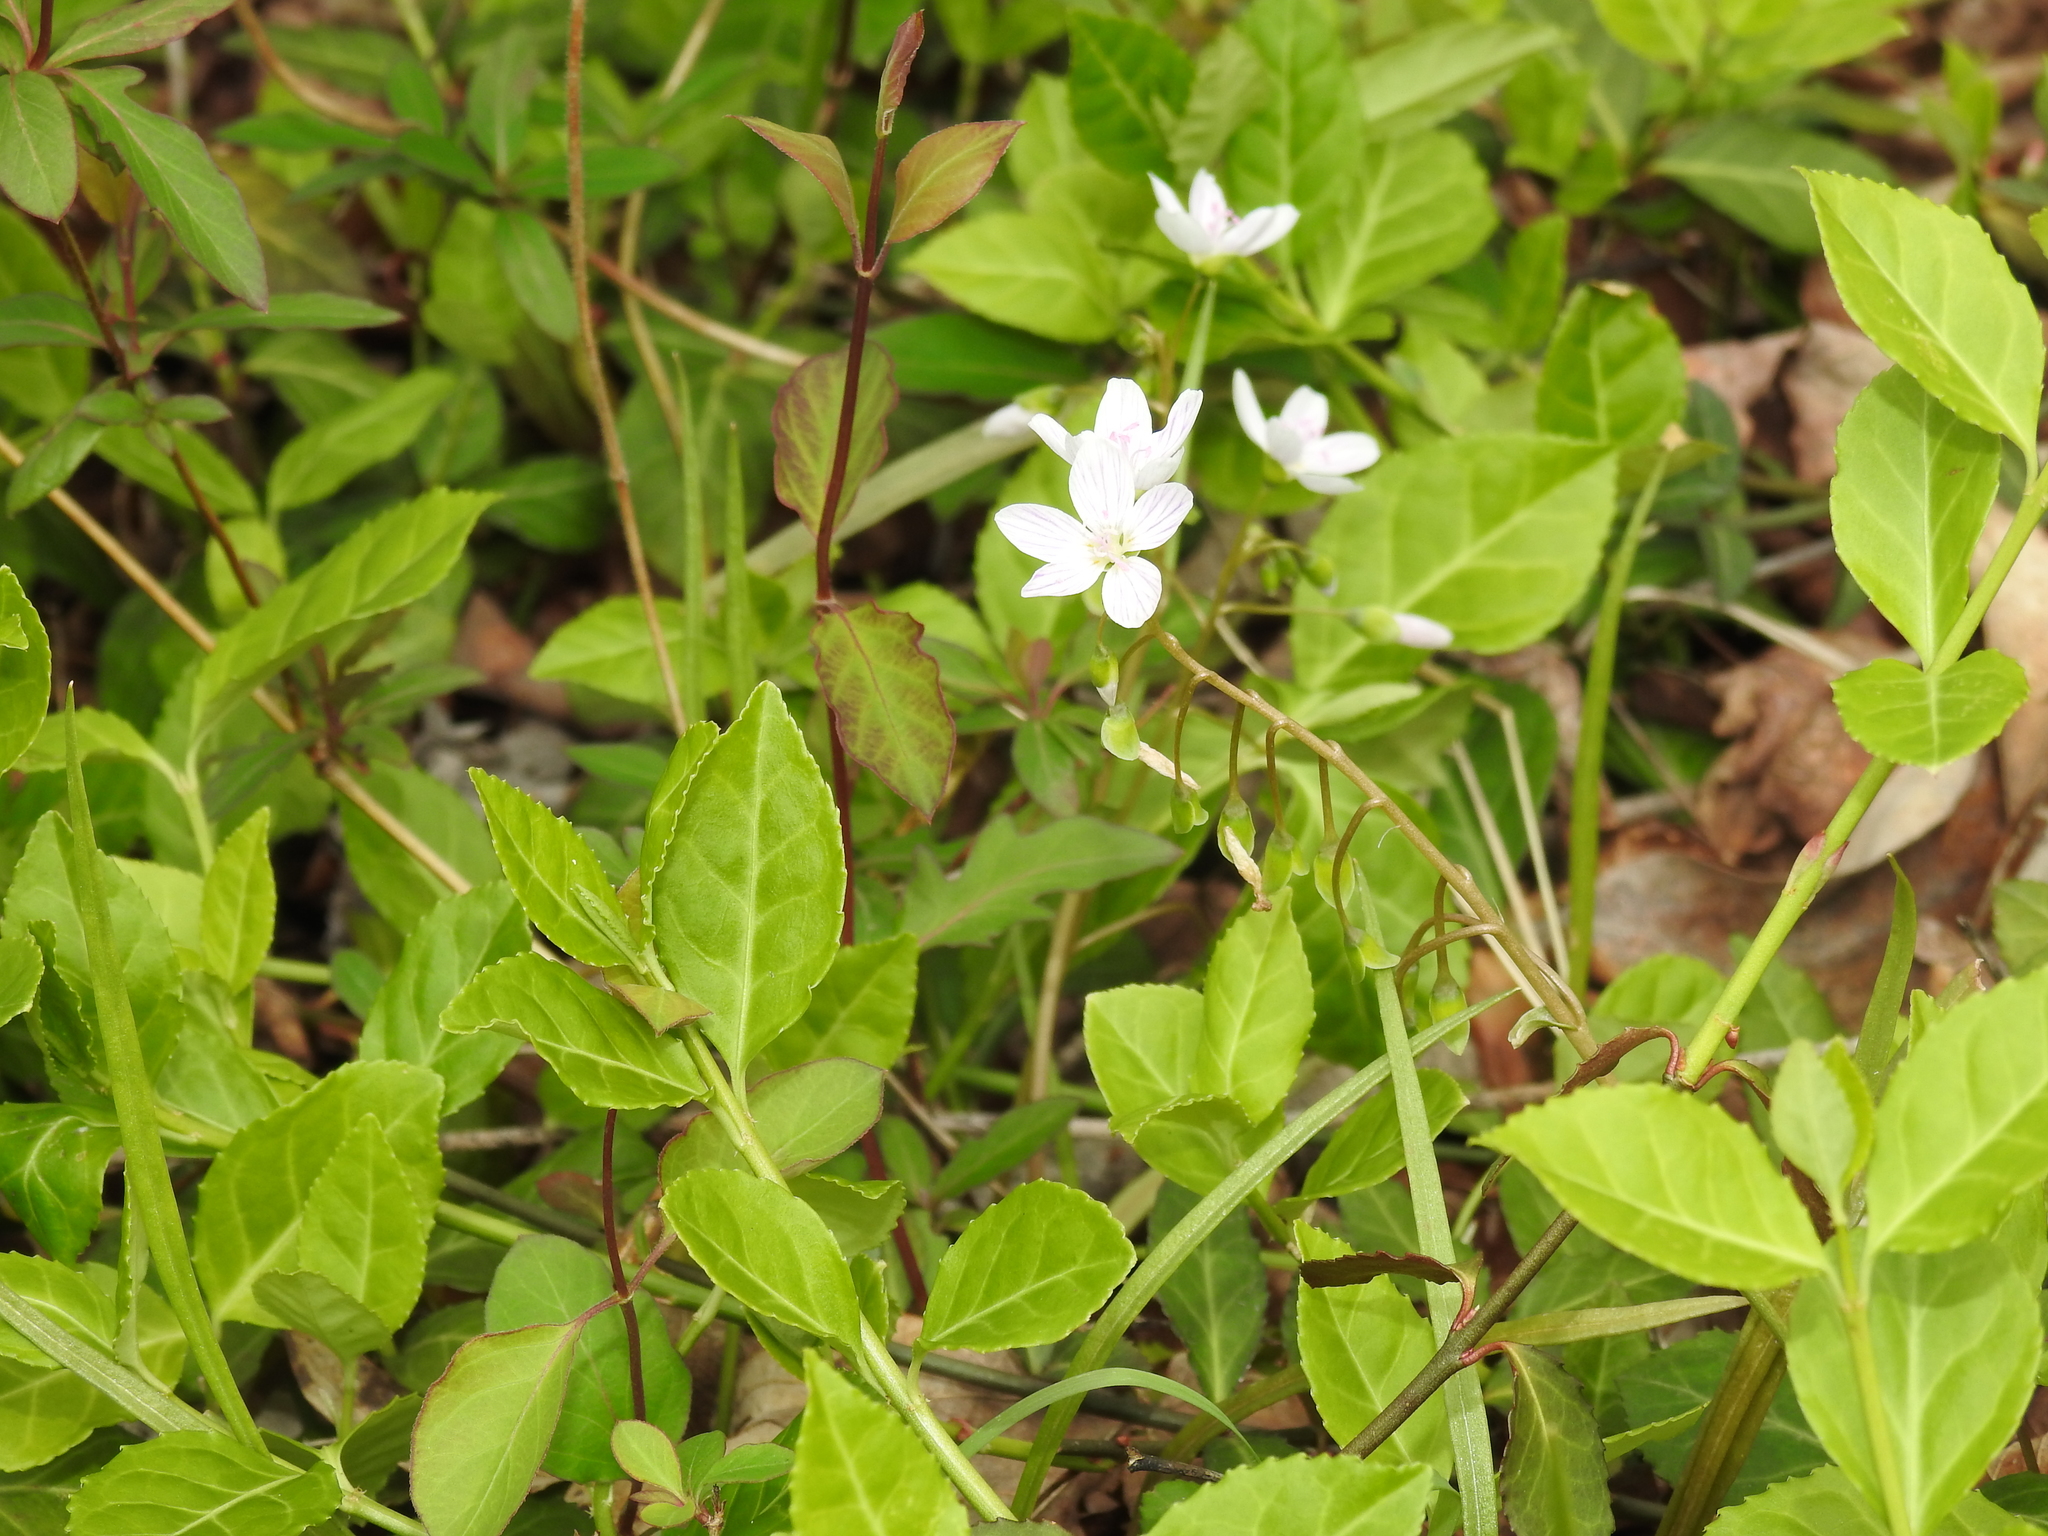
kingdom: Plantae
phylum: Tracheophyta
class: Magnoliopsida
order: Caryophyllales
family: Montiaceae
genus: Claytonia
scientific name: Claytonia virginica
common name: Virginia springbeauty
